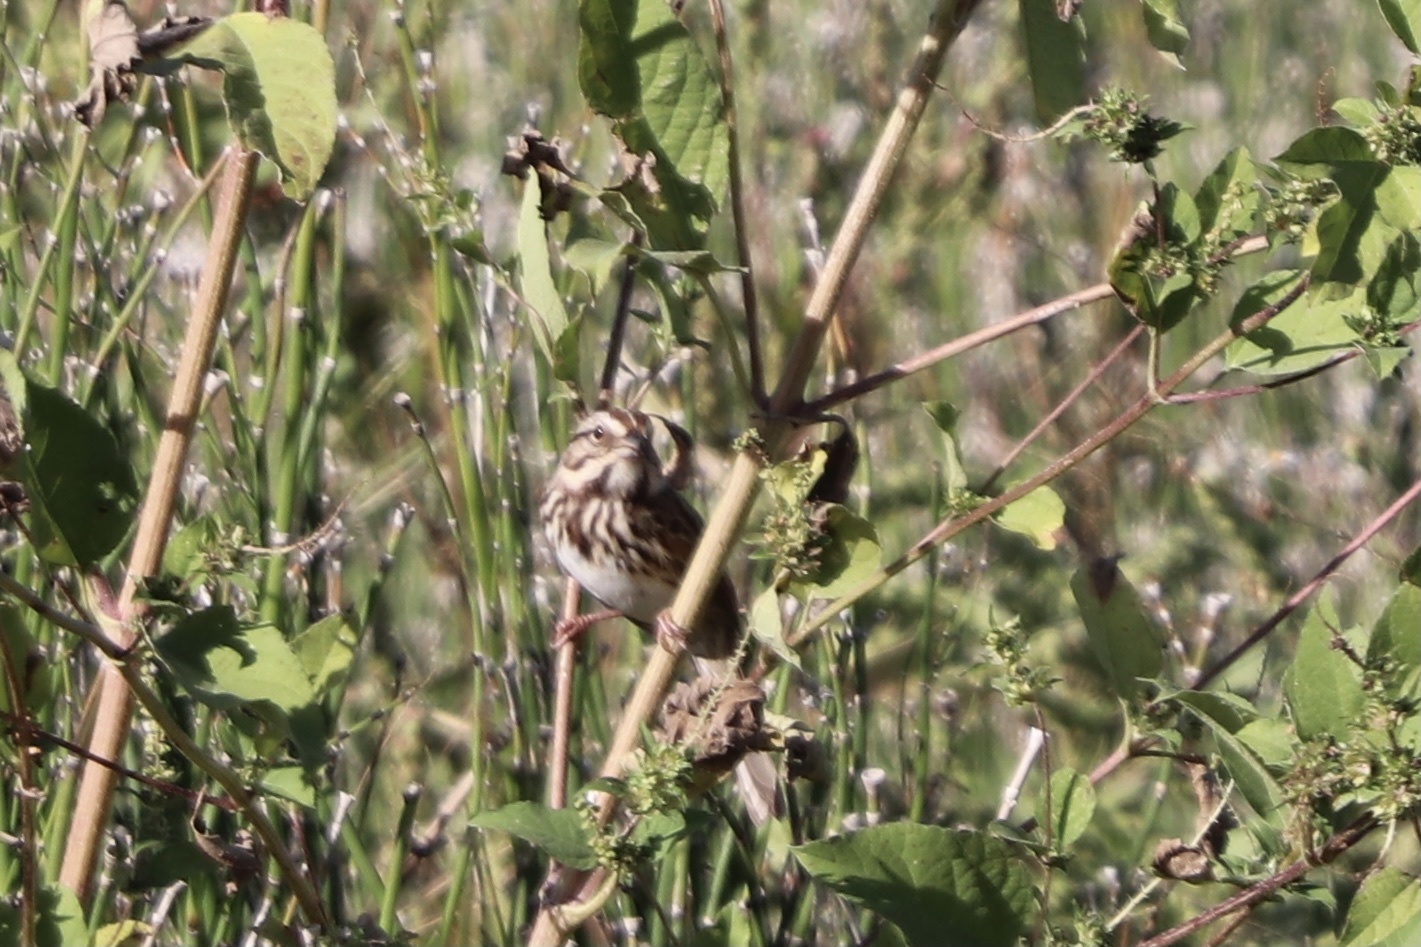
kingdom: Animalia
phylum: Chordata
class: Aves
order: Passeriformes
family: Passerellidae
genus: Melospiza
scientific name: Melospiza melodia
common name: Song sparrow
